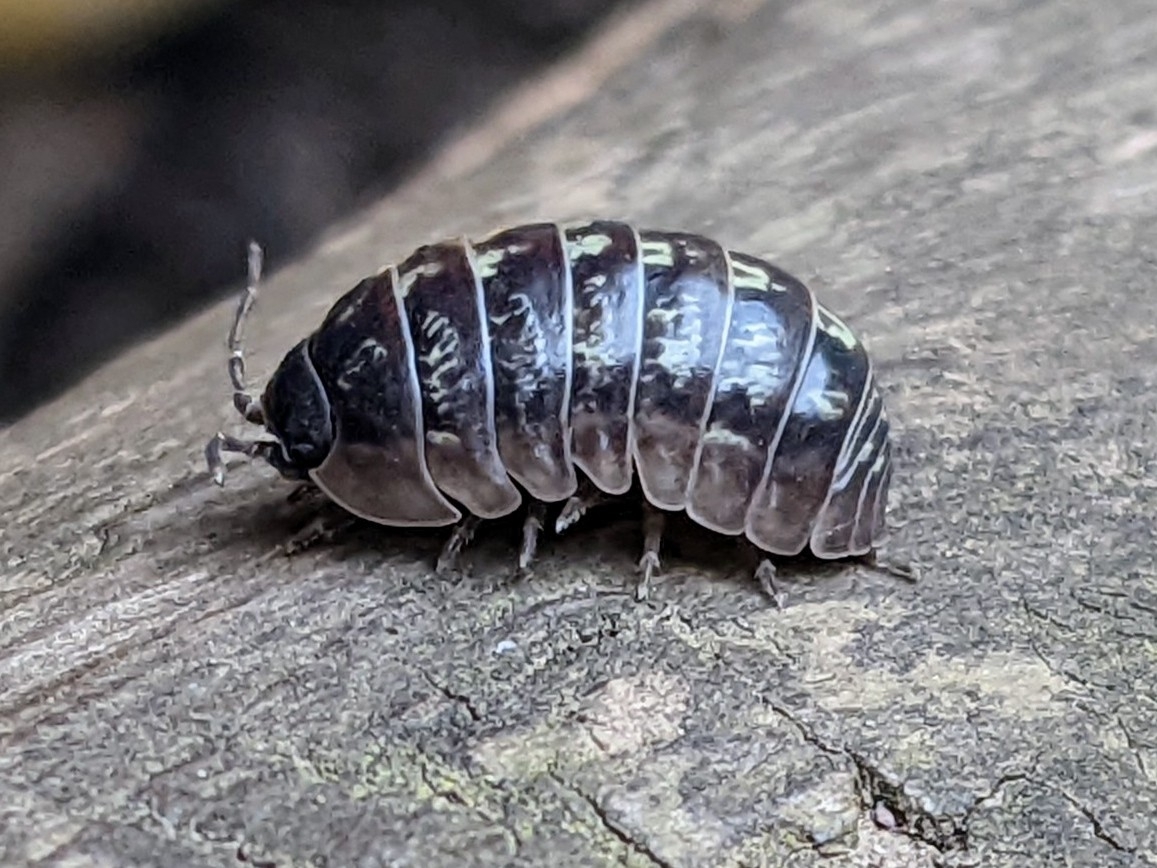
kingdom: Animalia
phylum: Arthropoda
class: Malacostraca
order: Isopoda
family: Armadillidiidae
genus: Armadillidium
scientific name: Armadillidium vulgare
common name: Common pill woodlouse
